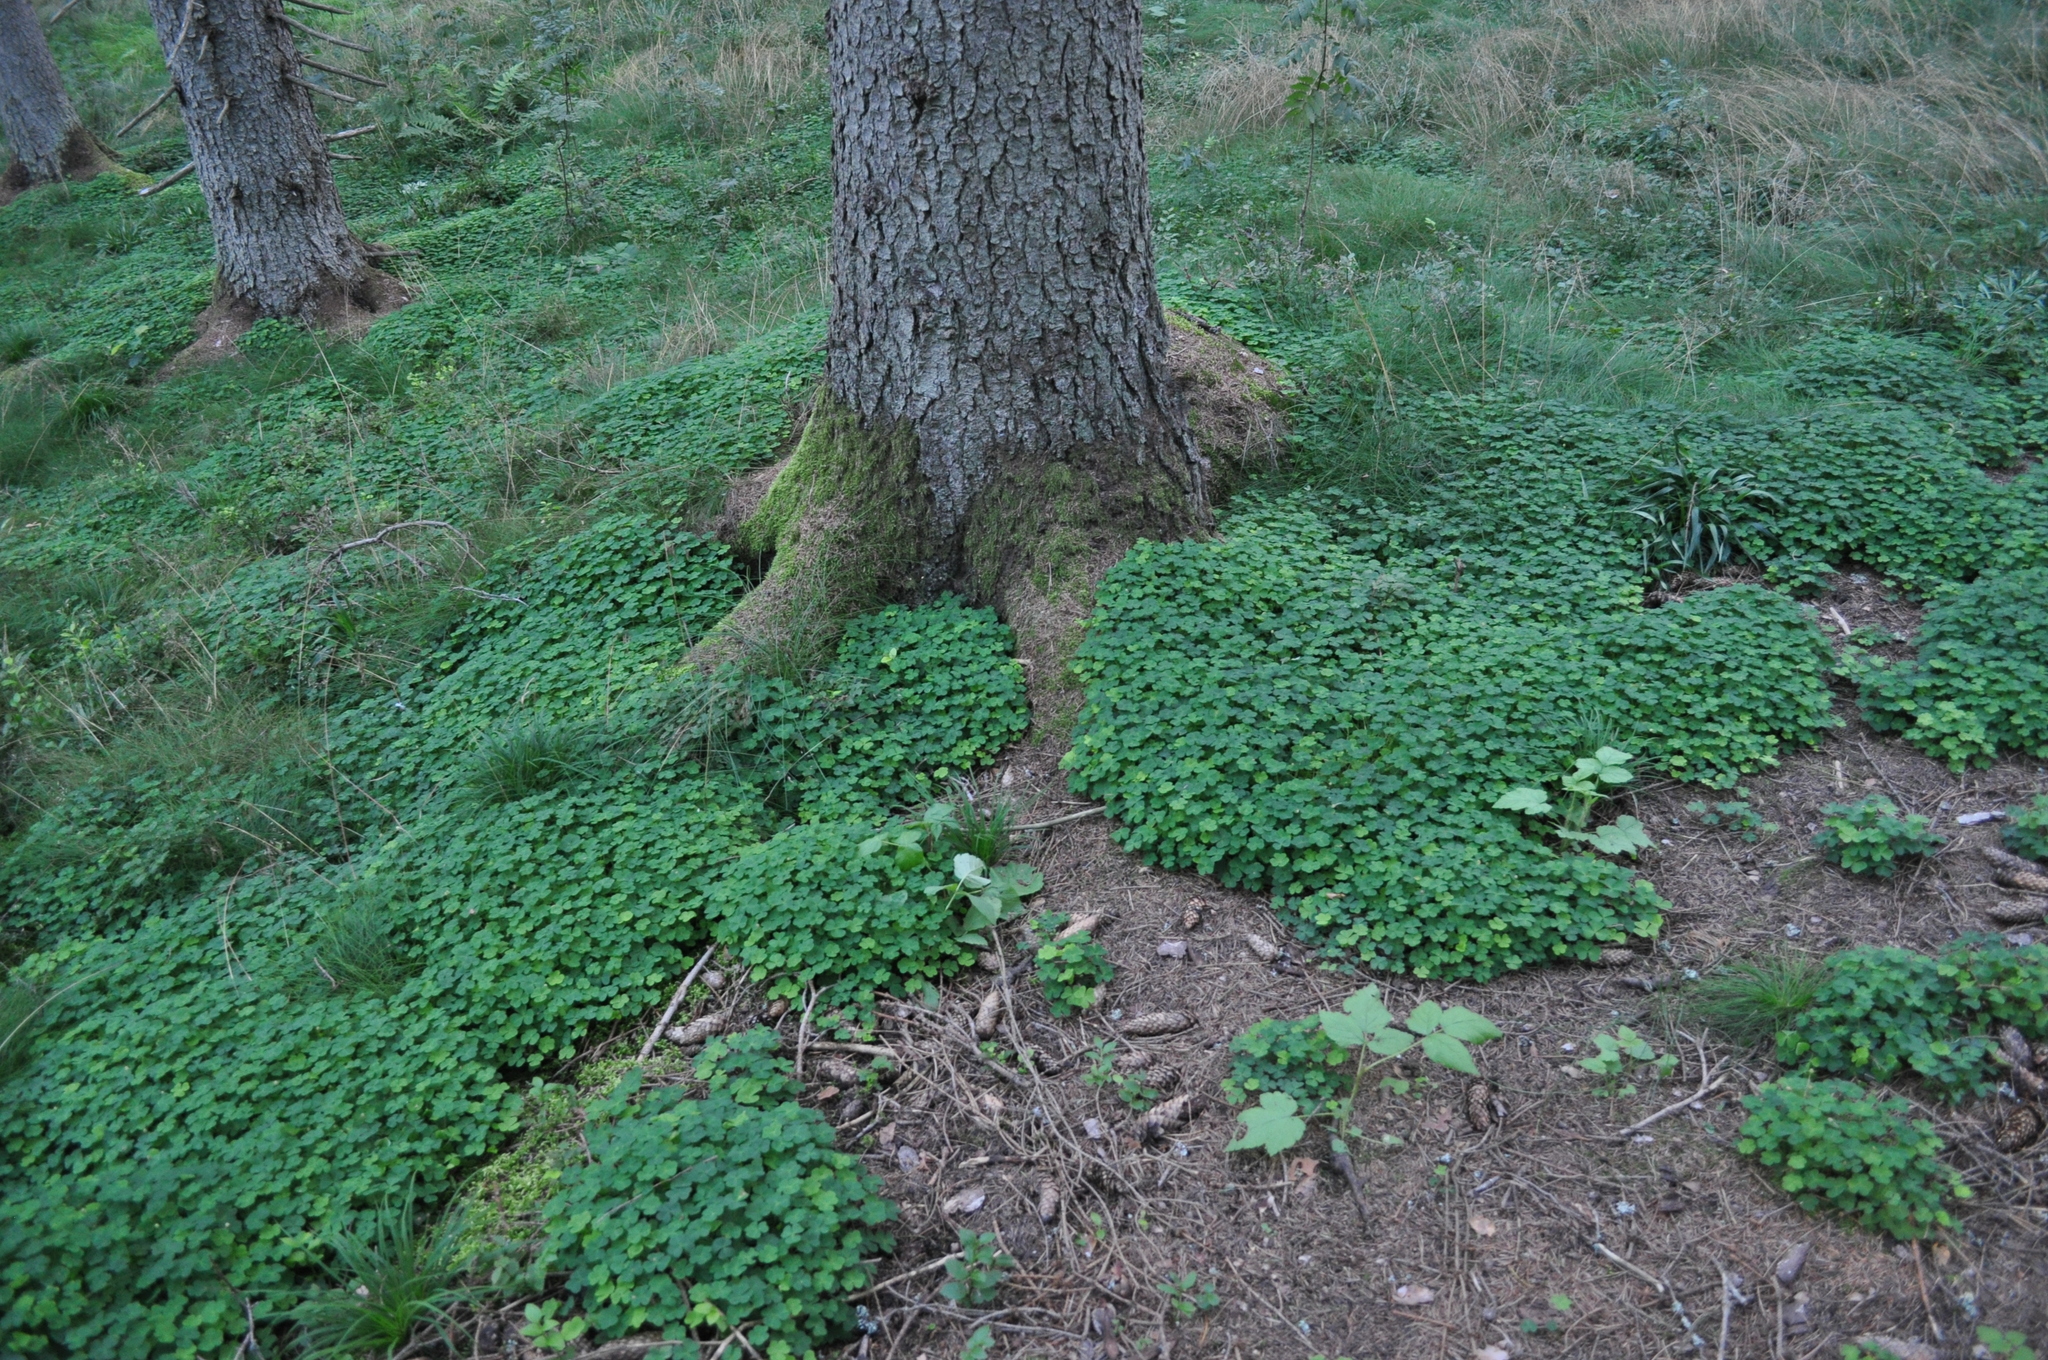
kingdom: Plantae
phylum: Tracheophyta
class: Magnoliopsida
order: Oxalidales
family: Oxalidaceae
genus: Oxalis
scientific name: Oxalis acetosella
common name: Wood-sorrel
